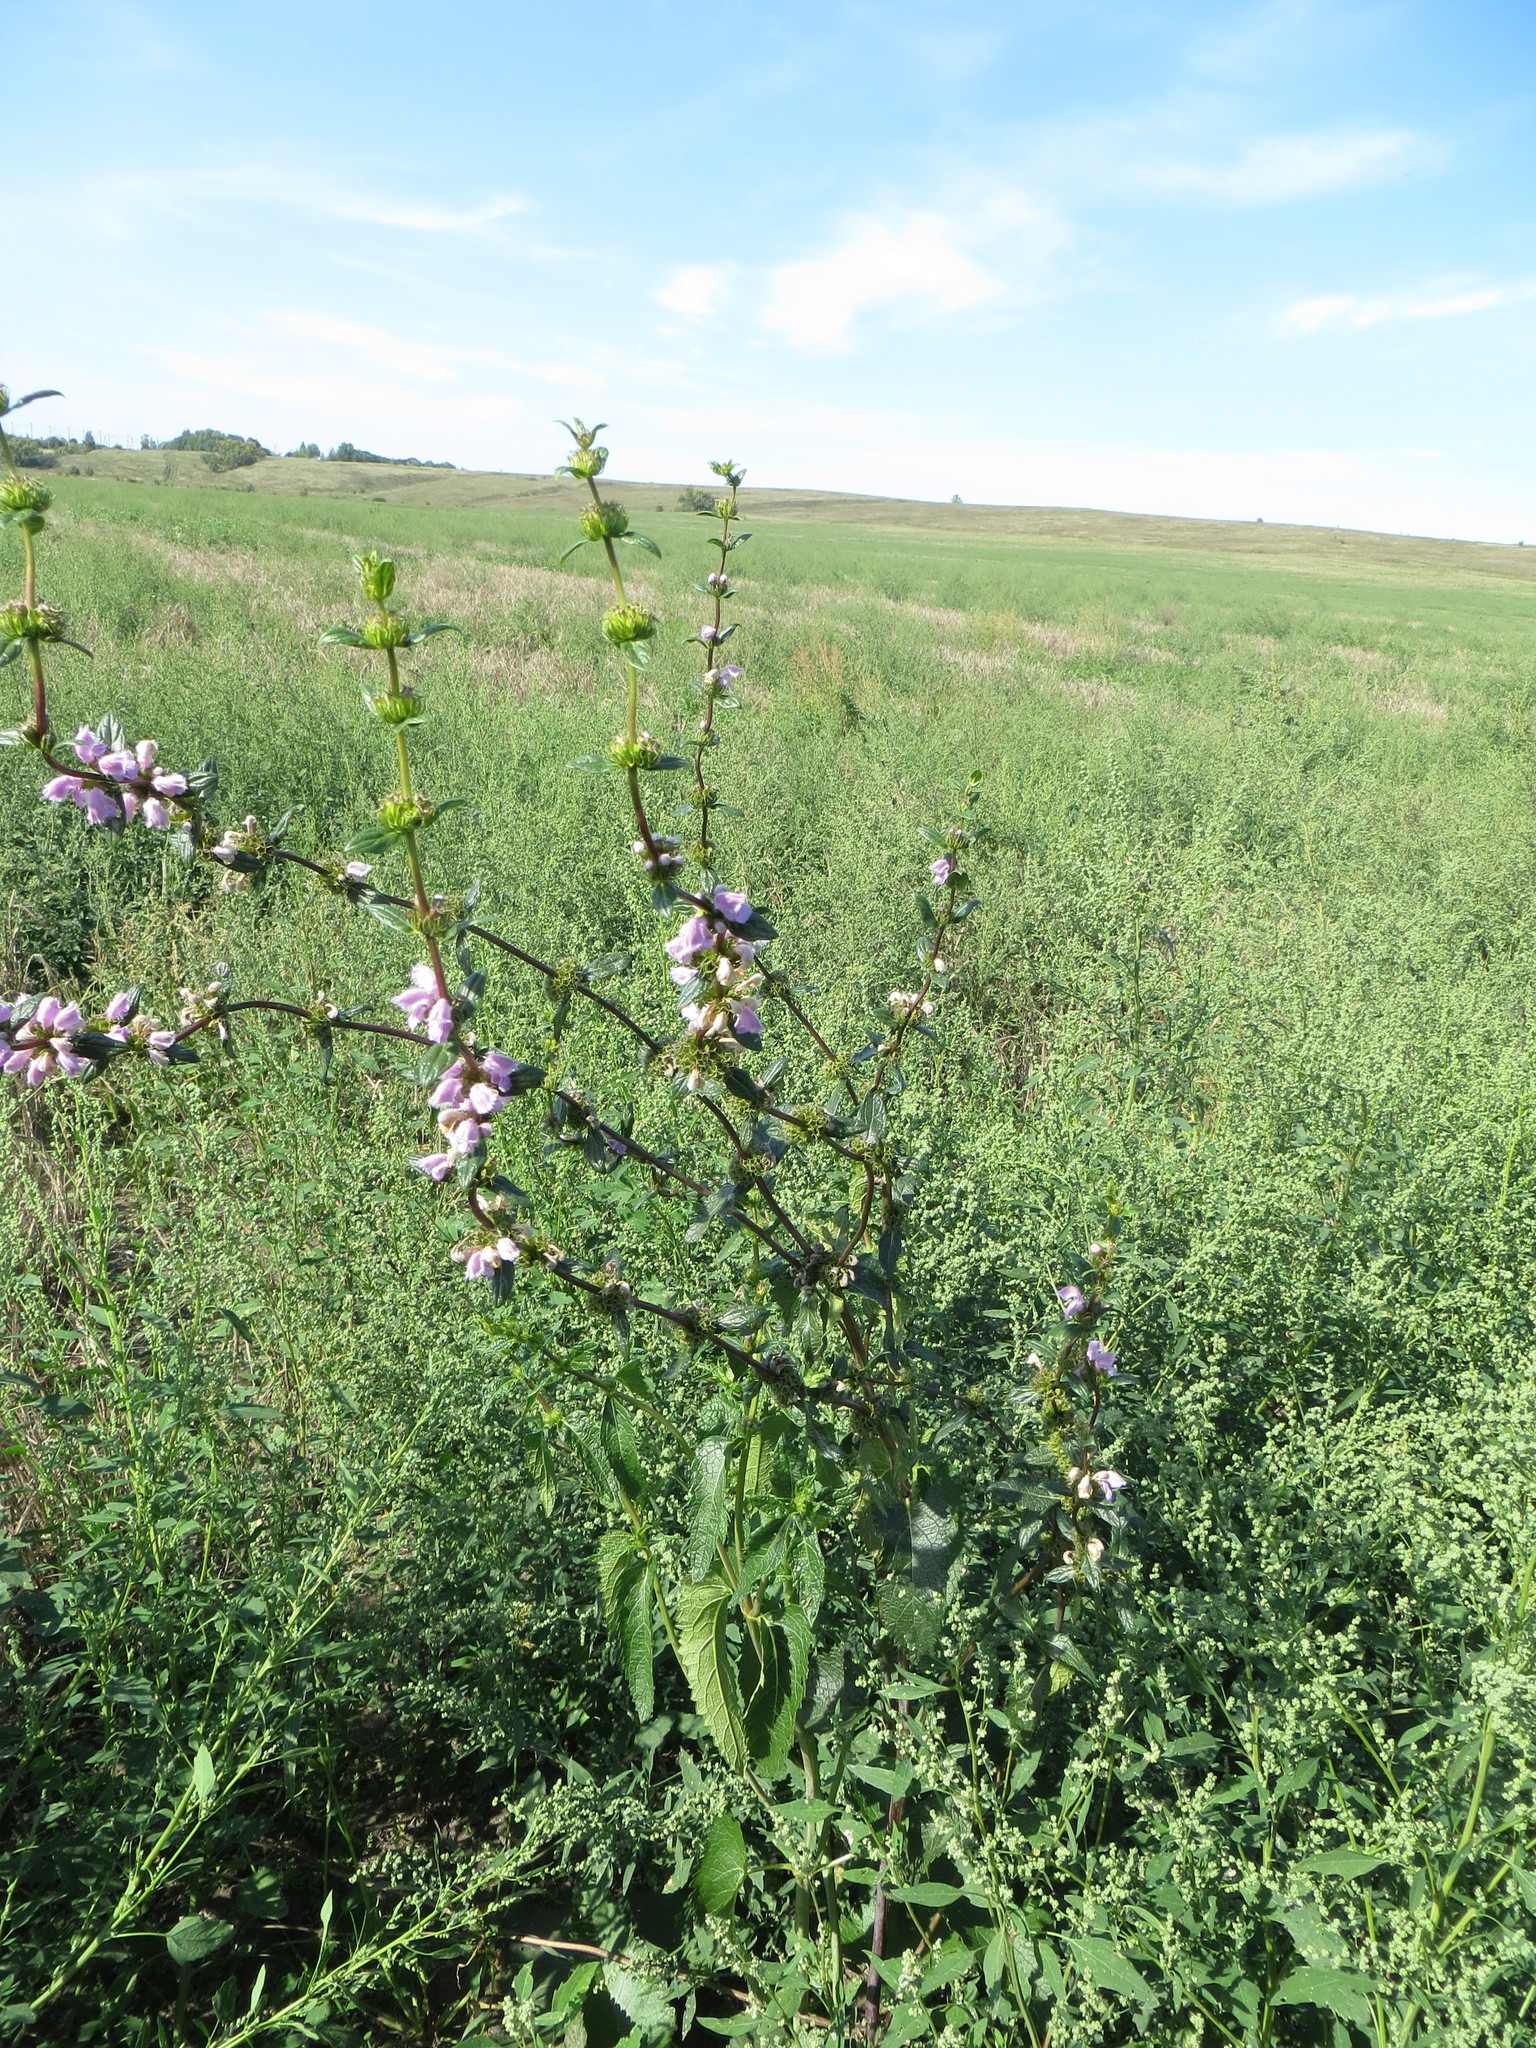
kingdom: Plantae
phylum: Tracheophyta
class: Magnoliopsida
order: Lamiales
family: Lamiaceae
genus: Phlomoides
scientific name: Phlomoides tuberosa
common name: Tuberous jerusalem sage
